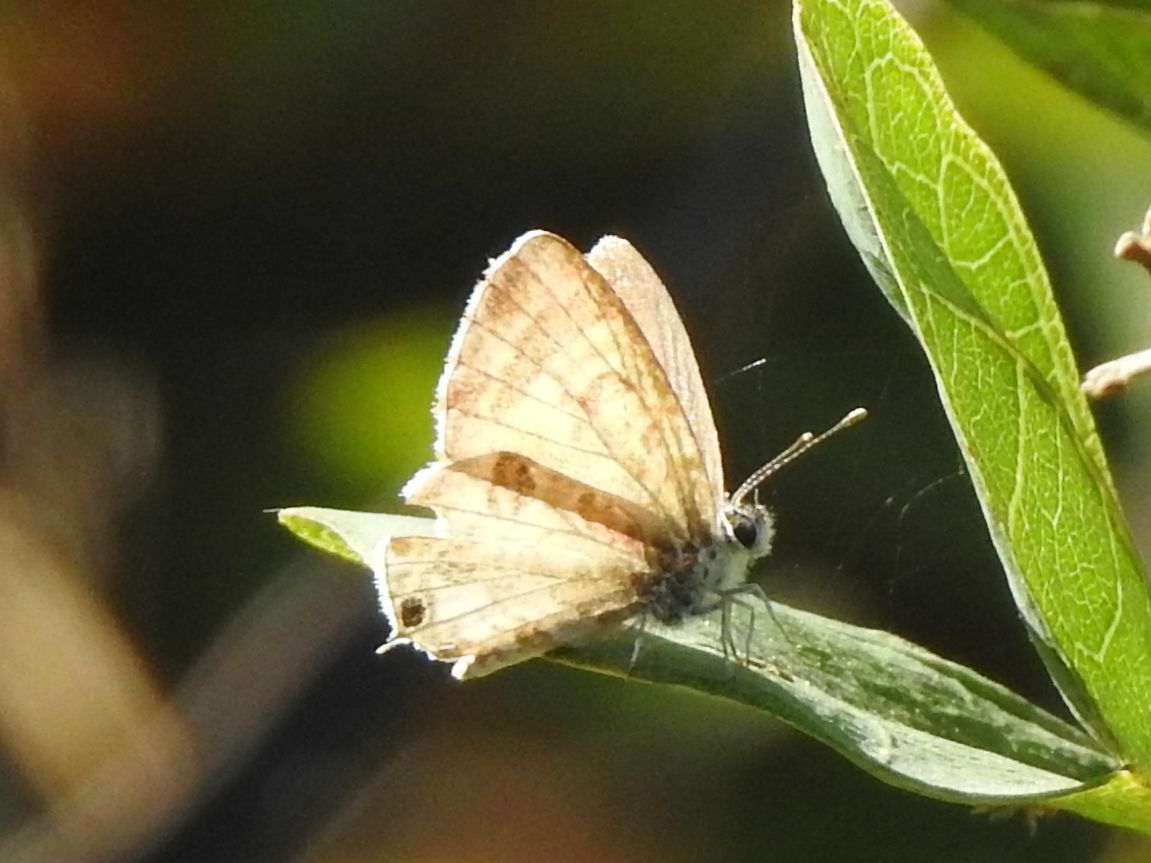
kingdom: Animalia
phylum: Arthropoda
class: Insecta
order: Lepidoptera
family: Lycaenidae
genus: Cacyreus
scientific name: Cacyreus virilis
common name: Alternative bush blue
